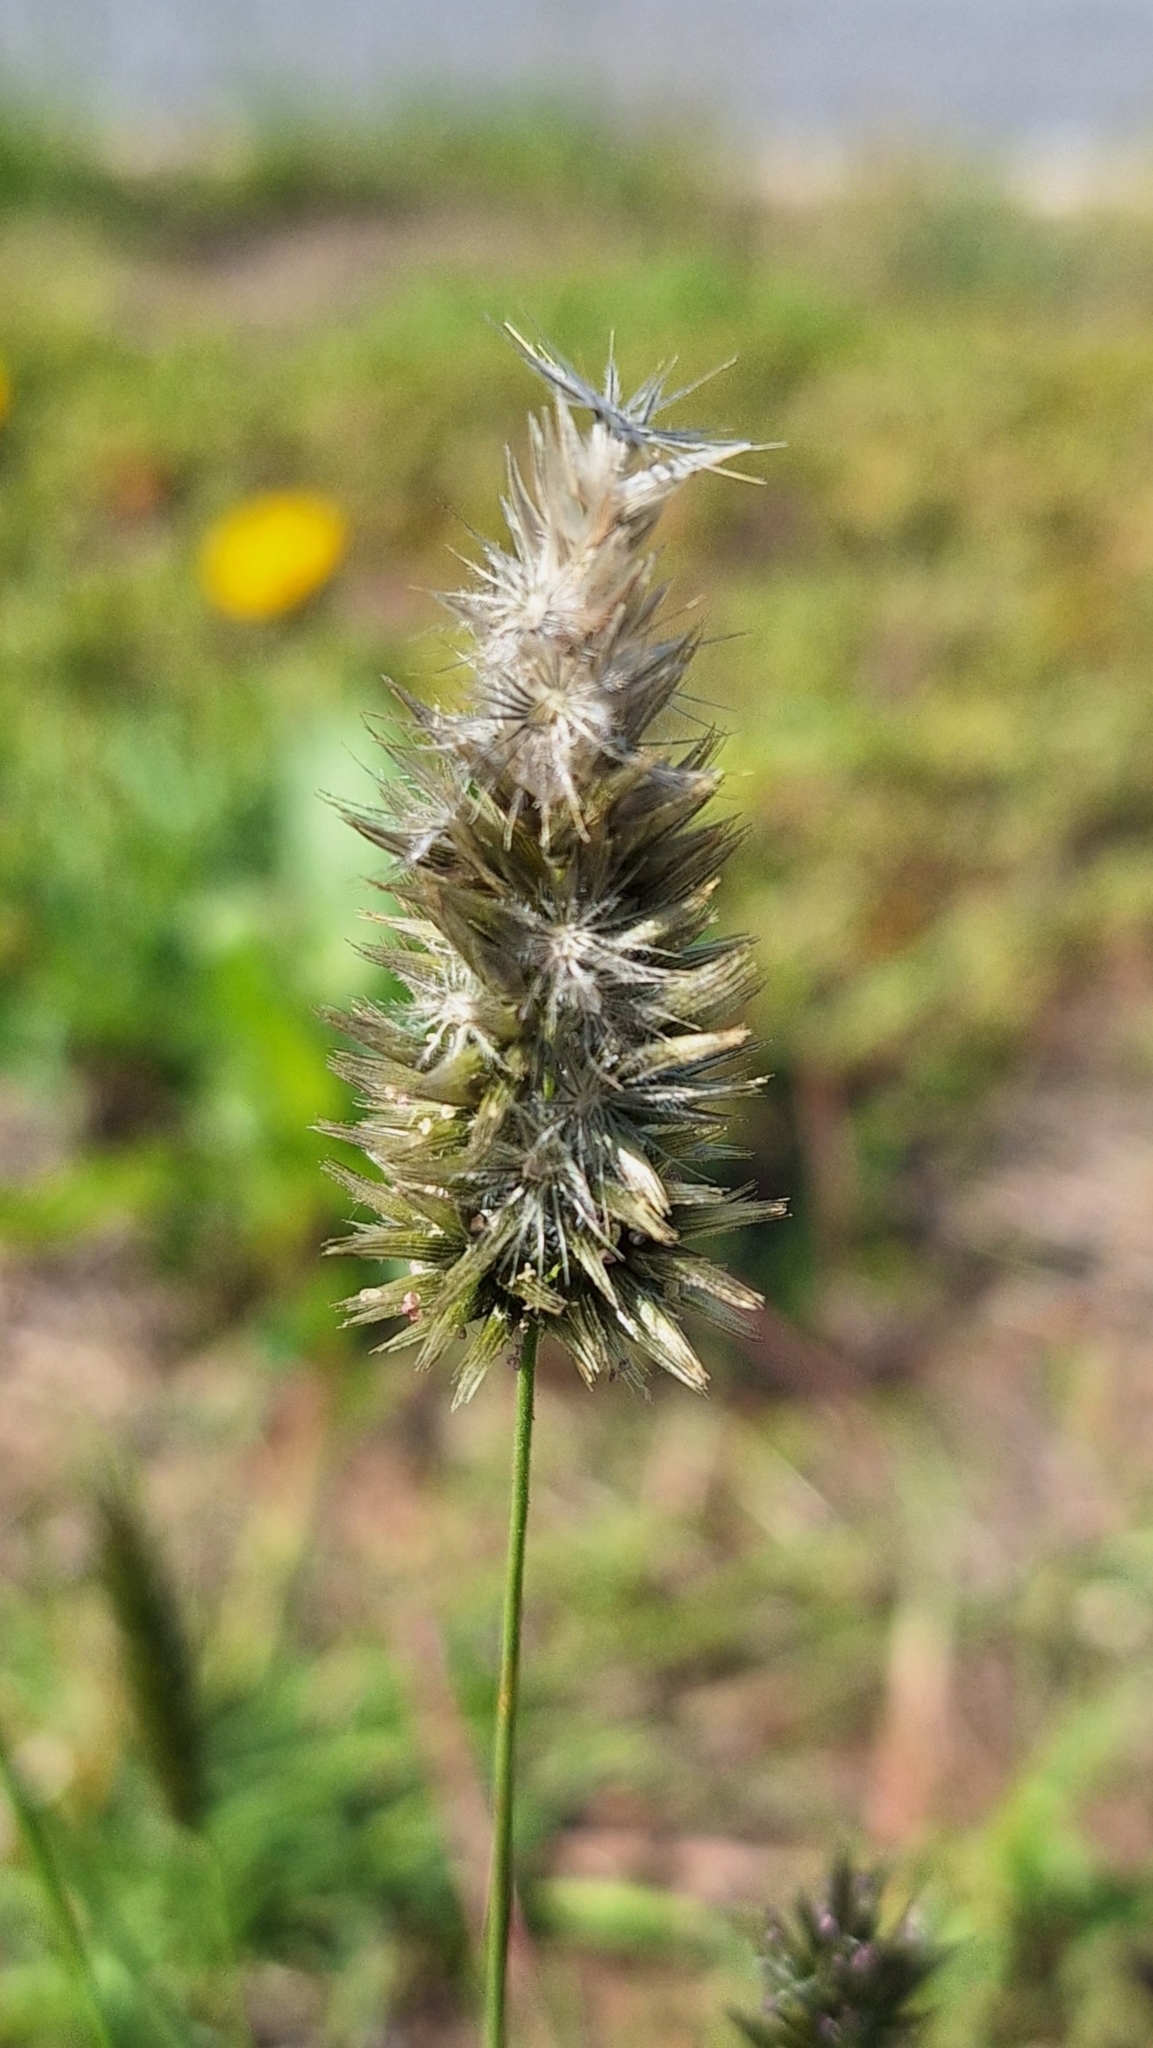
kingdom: Plantae
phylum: Tracheophyta
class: Liliopsida
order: Poales
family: Poaceae
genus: Enneapogon
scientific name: Enneapogon nigricans
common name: Pappus grass
